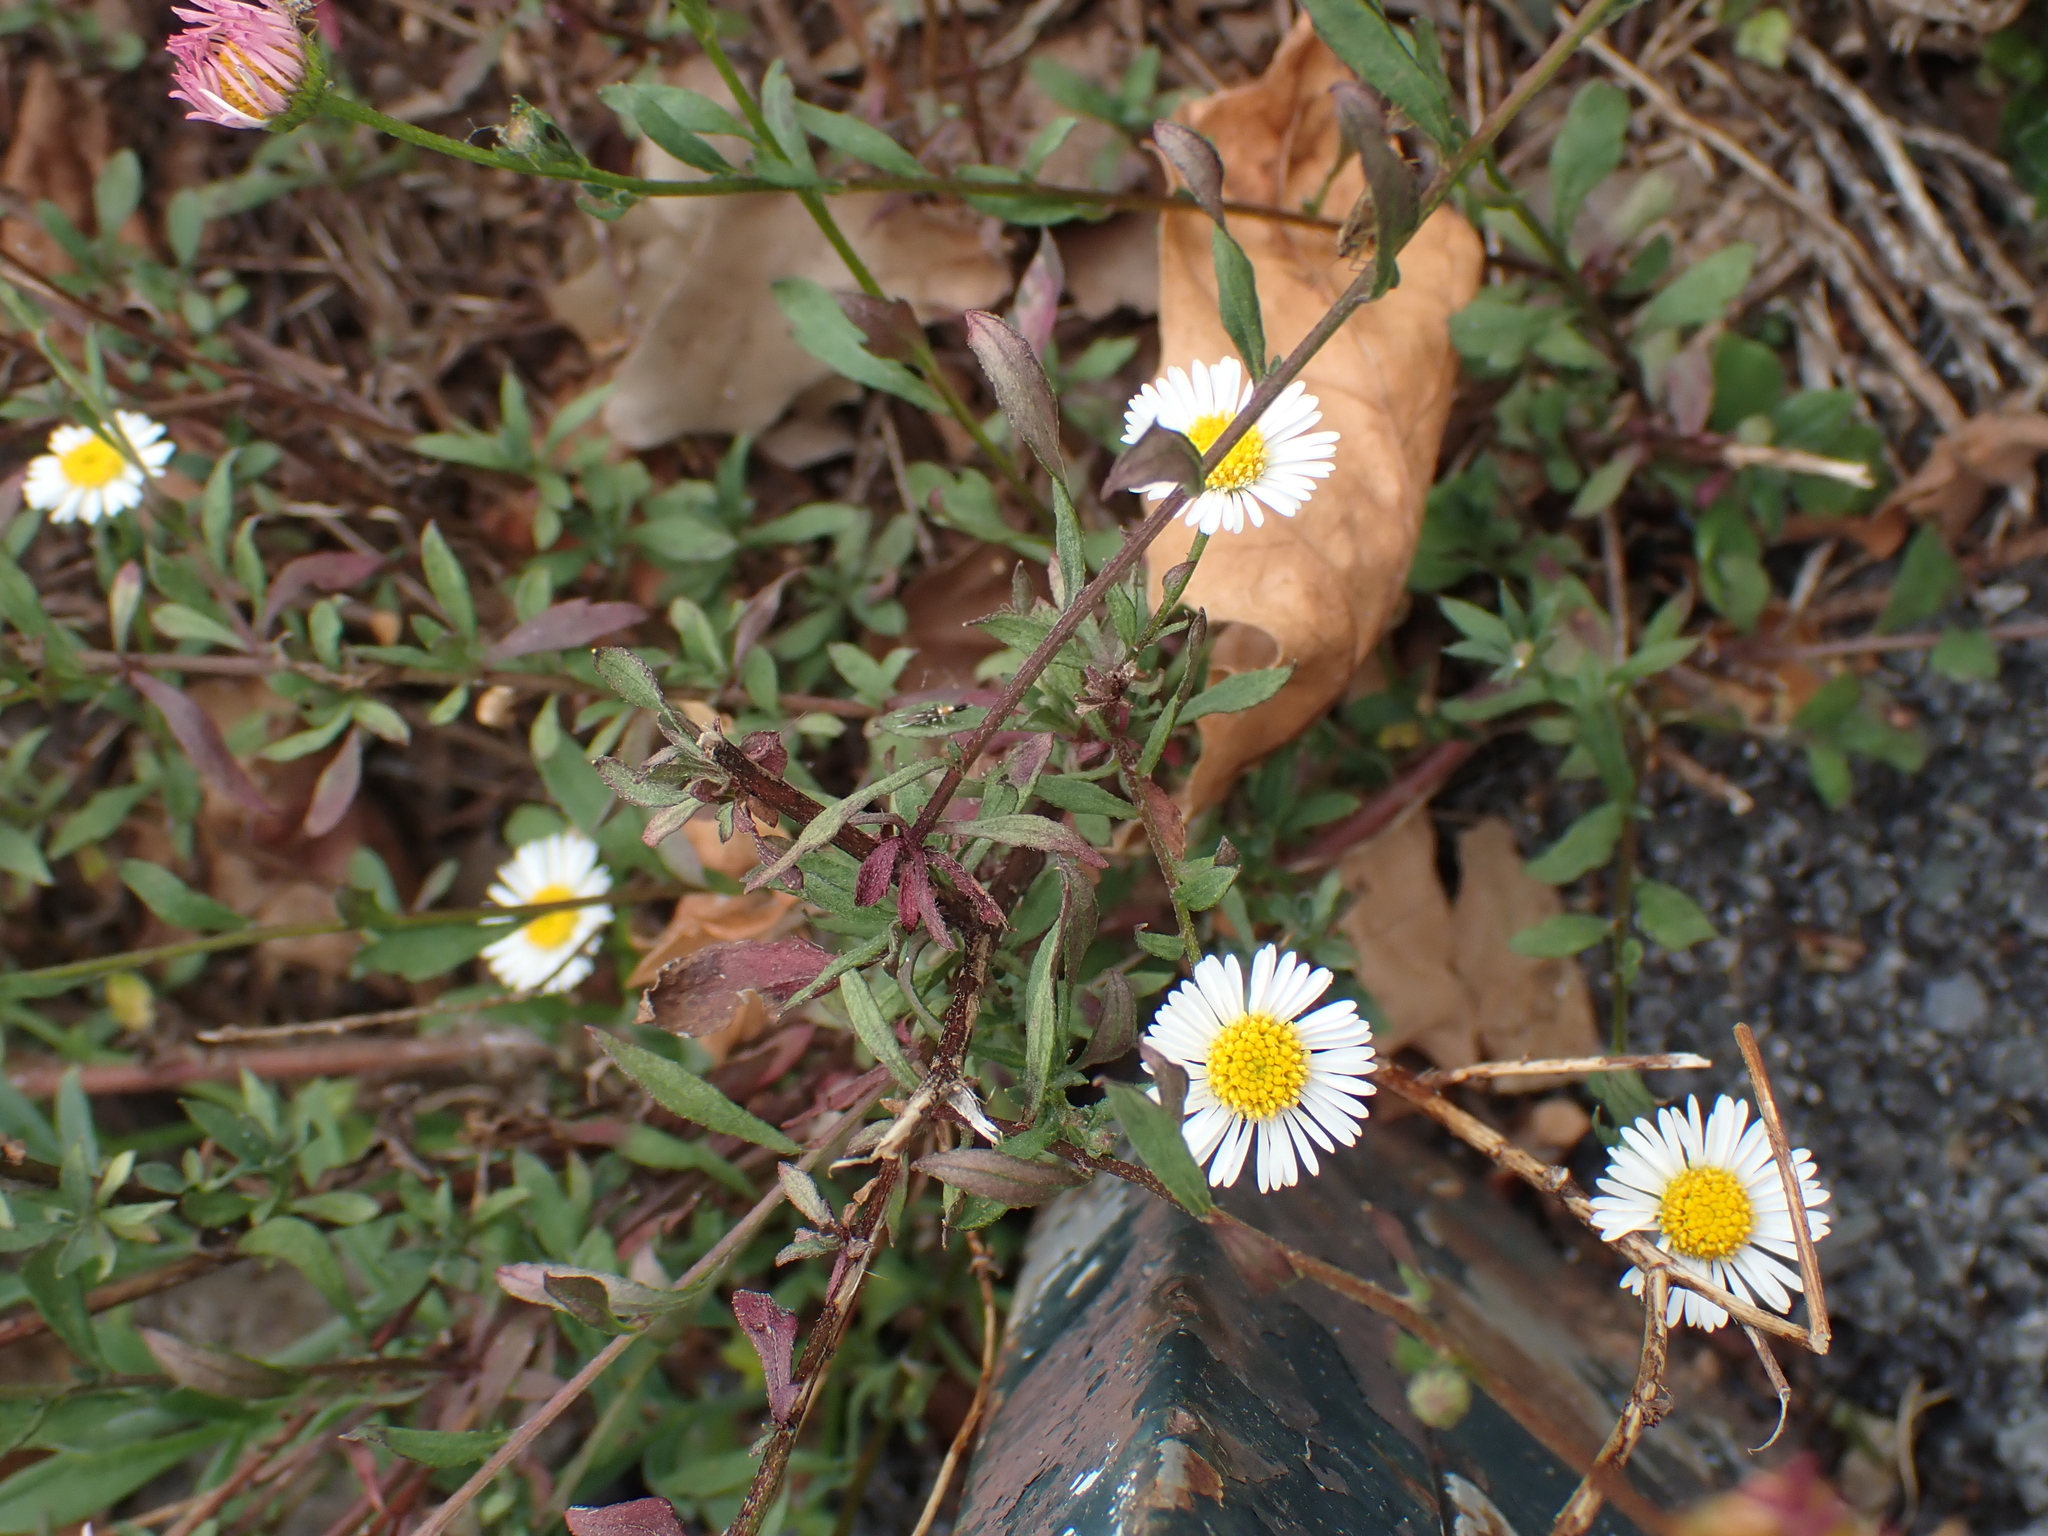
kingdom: Plantae
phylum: Tracheophyta
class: Magnoliopsida
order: Asterales
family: Asteraceae
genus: Erigeron
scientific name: Erigeron karvinskianus
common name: Mexican fleabane
